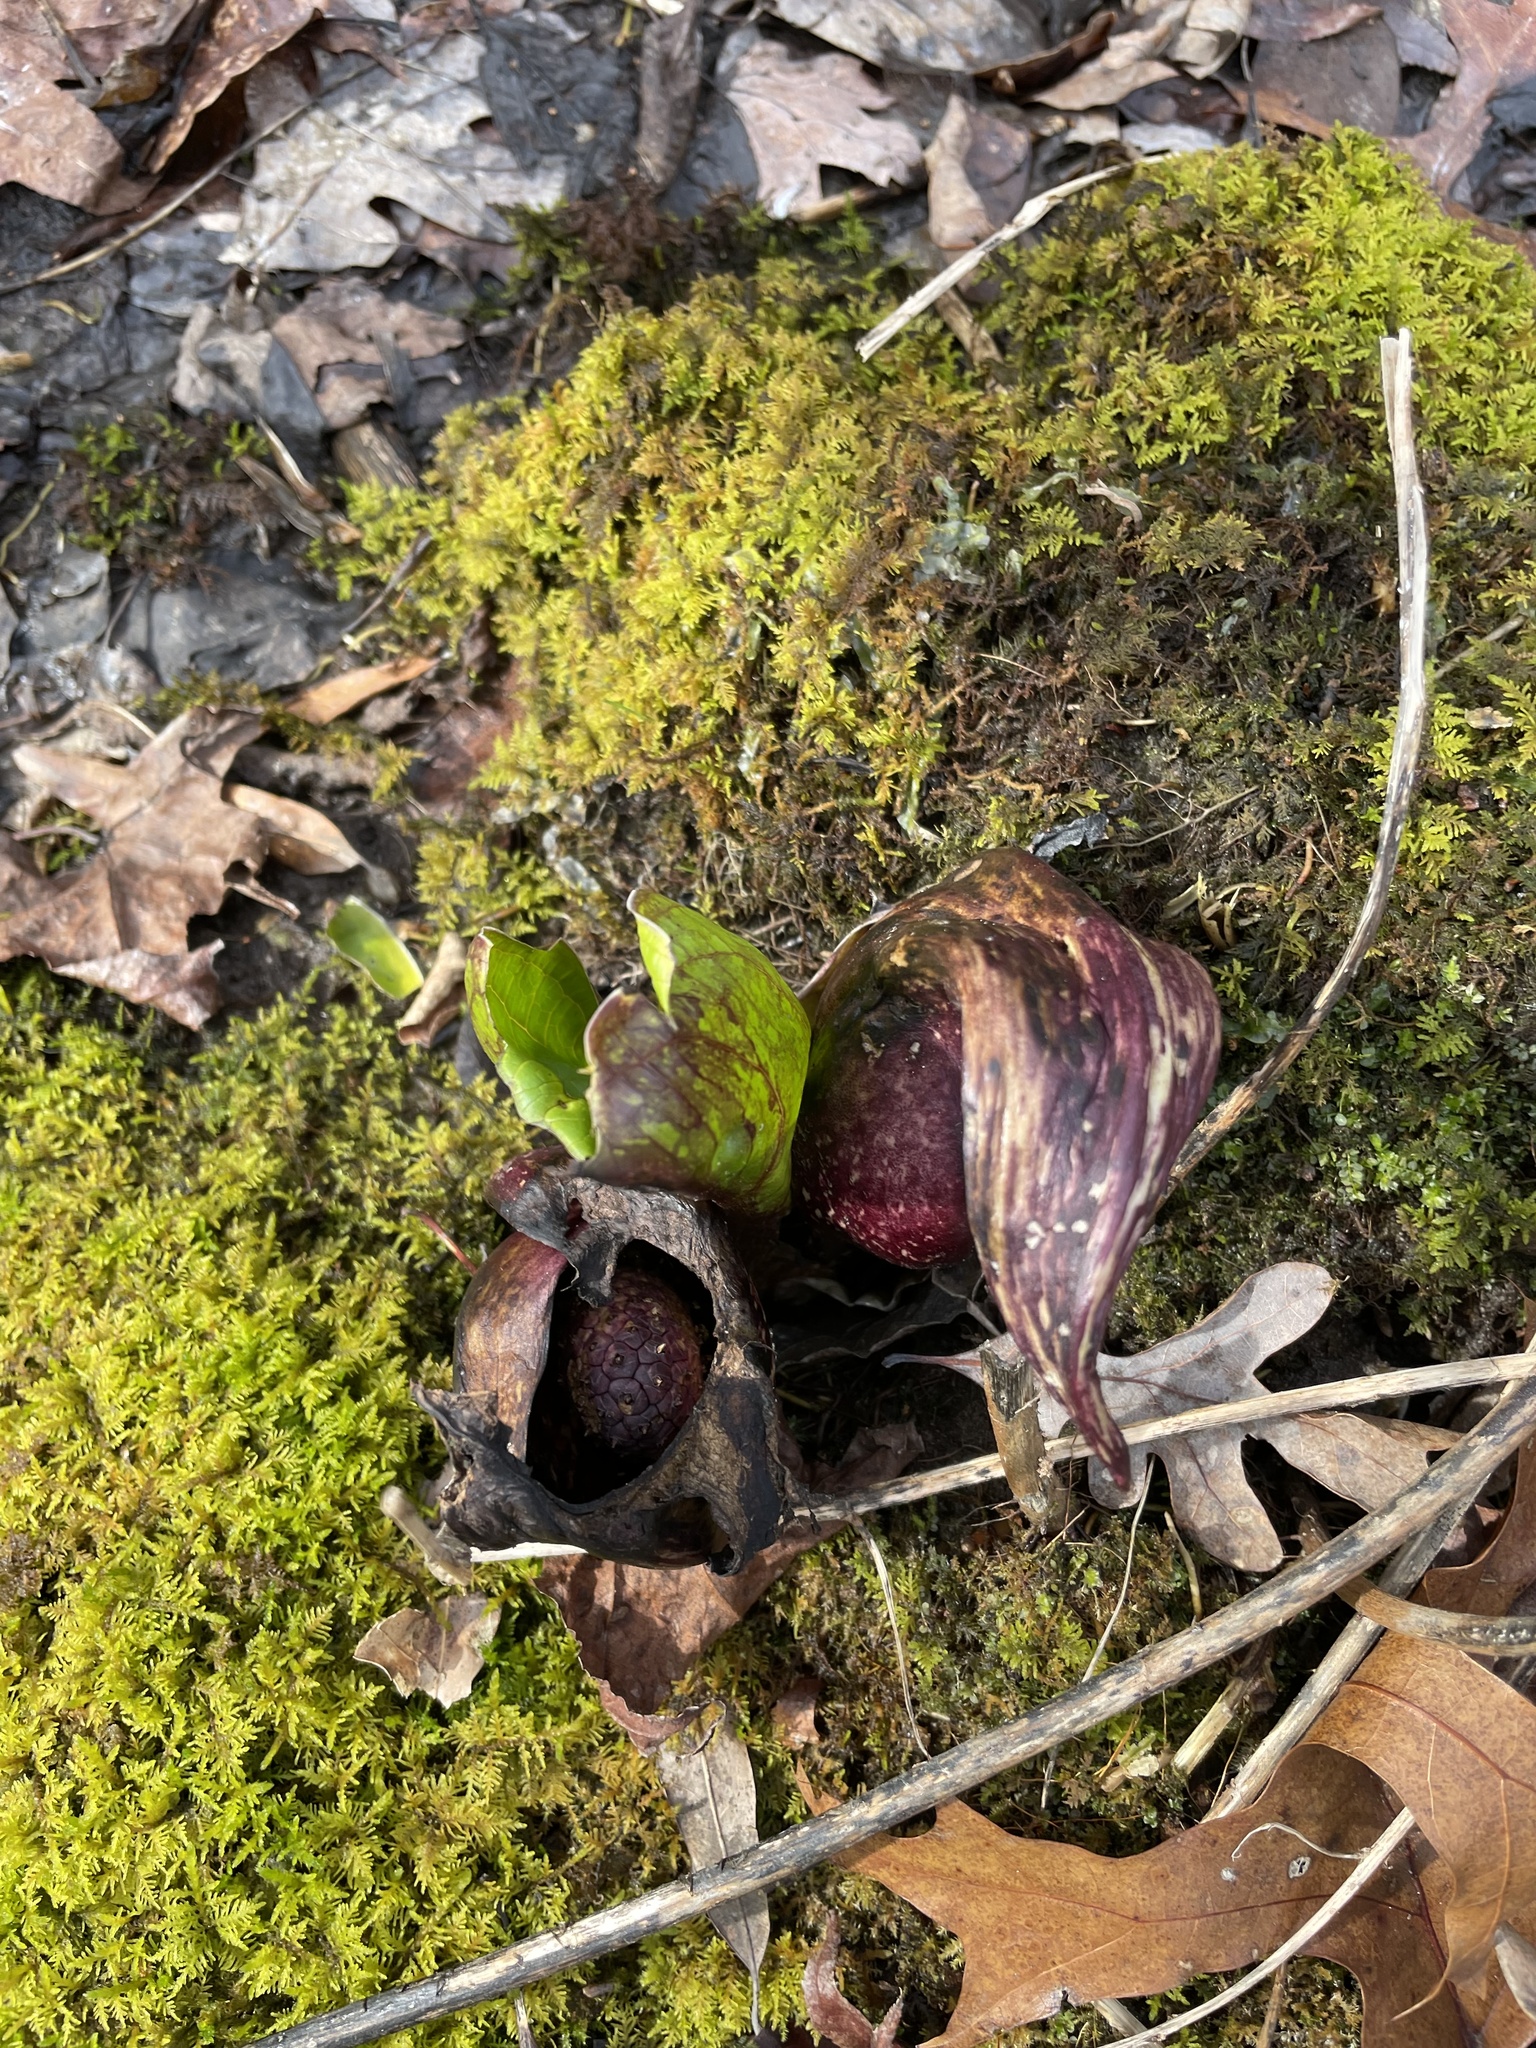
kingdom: Plantae
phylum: Tracheophyta
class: Liliopsida
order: Alismatales
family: Araceae
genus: Symplocarpus
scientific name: Symplocarpus foetidus
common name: Eastern skunk cabbage
